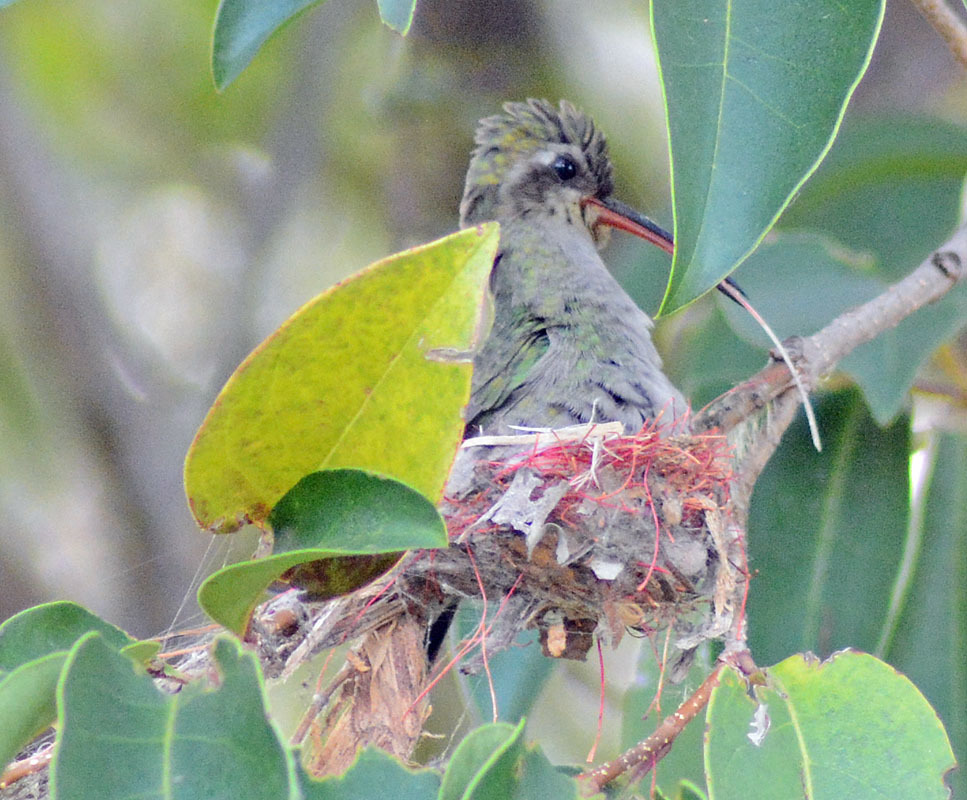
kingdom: Animalia
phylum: Chordata
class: Aves
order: Apodiformes
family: Trochilidae
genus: Cynanthus
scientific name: Cynanthus latirostris
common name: Broad-billed hummingbird
